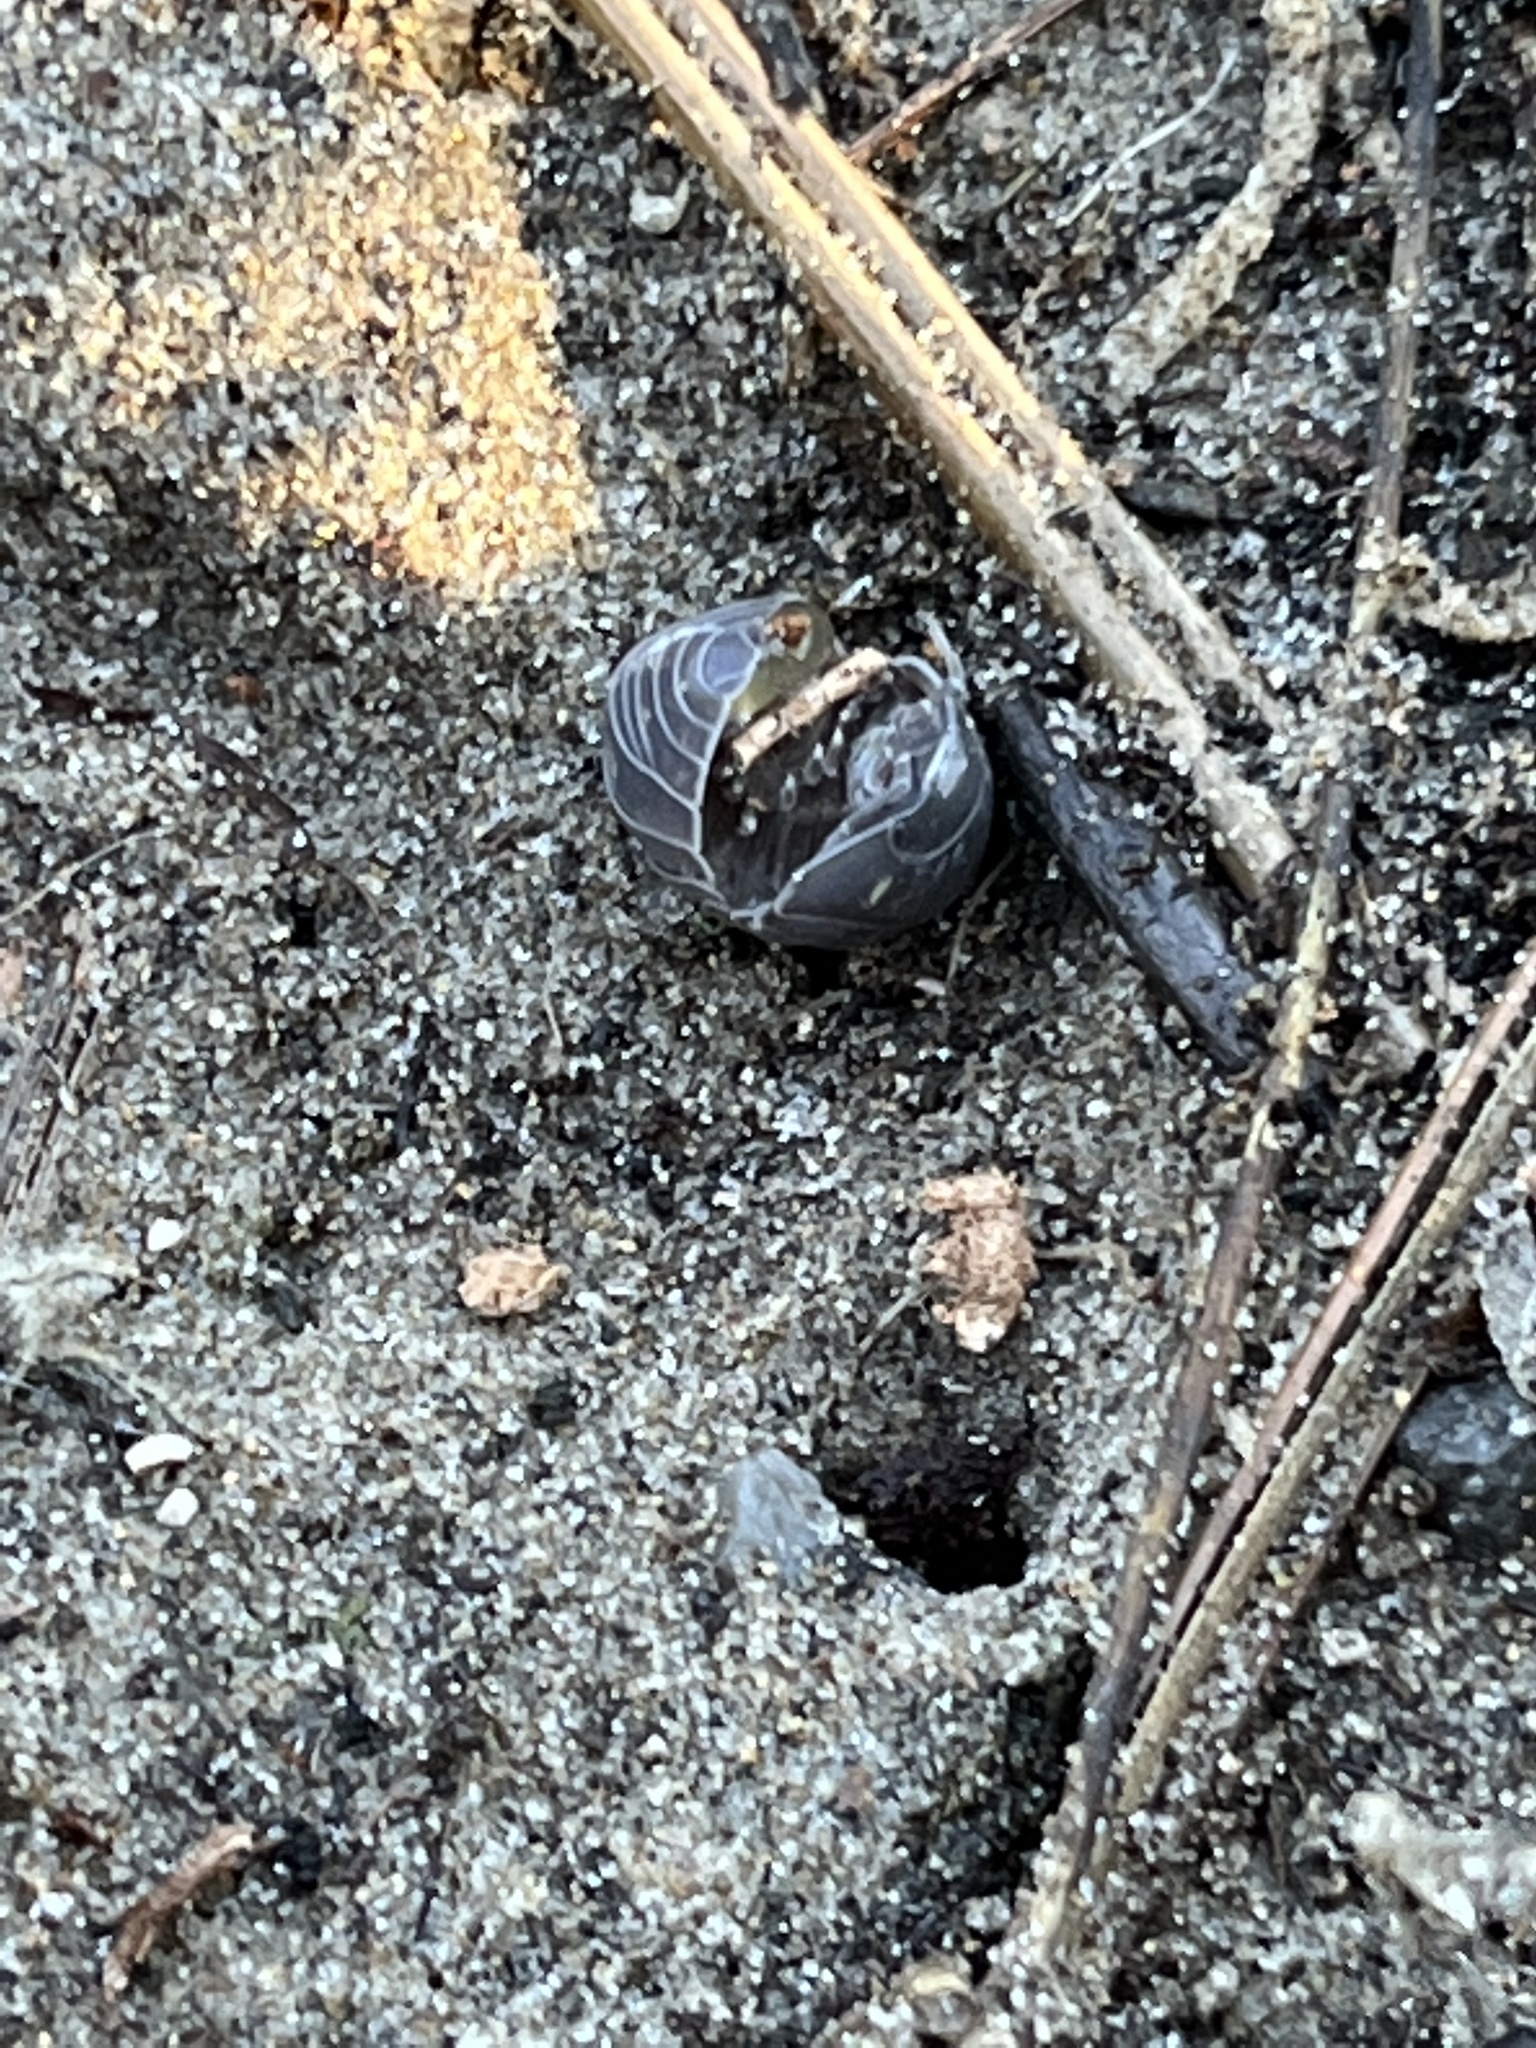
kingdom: Animalia
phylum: Arthropoda
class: Malacostraca
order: Isopoda
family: Armadillidiidae
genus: Armadillidium
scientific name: Armadillidium vulgare
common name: Common pill woodlouse
